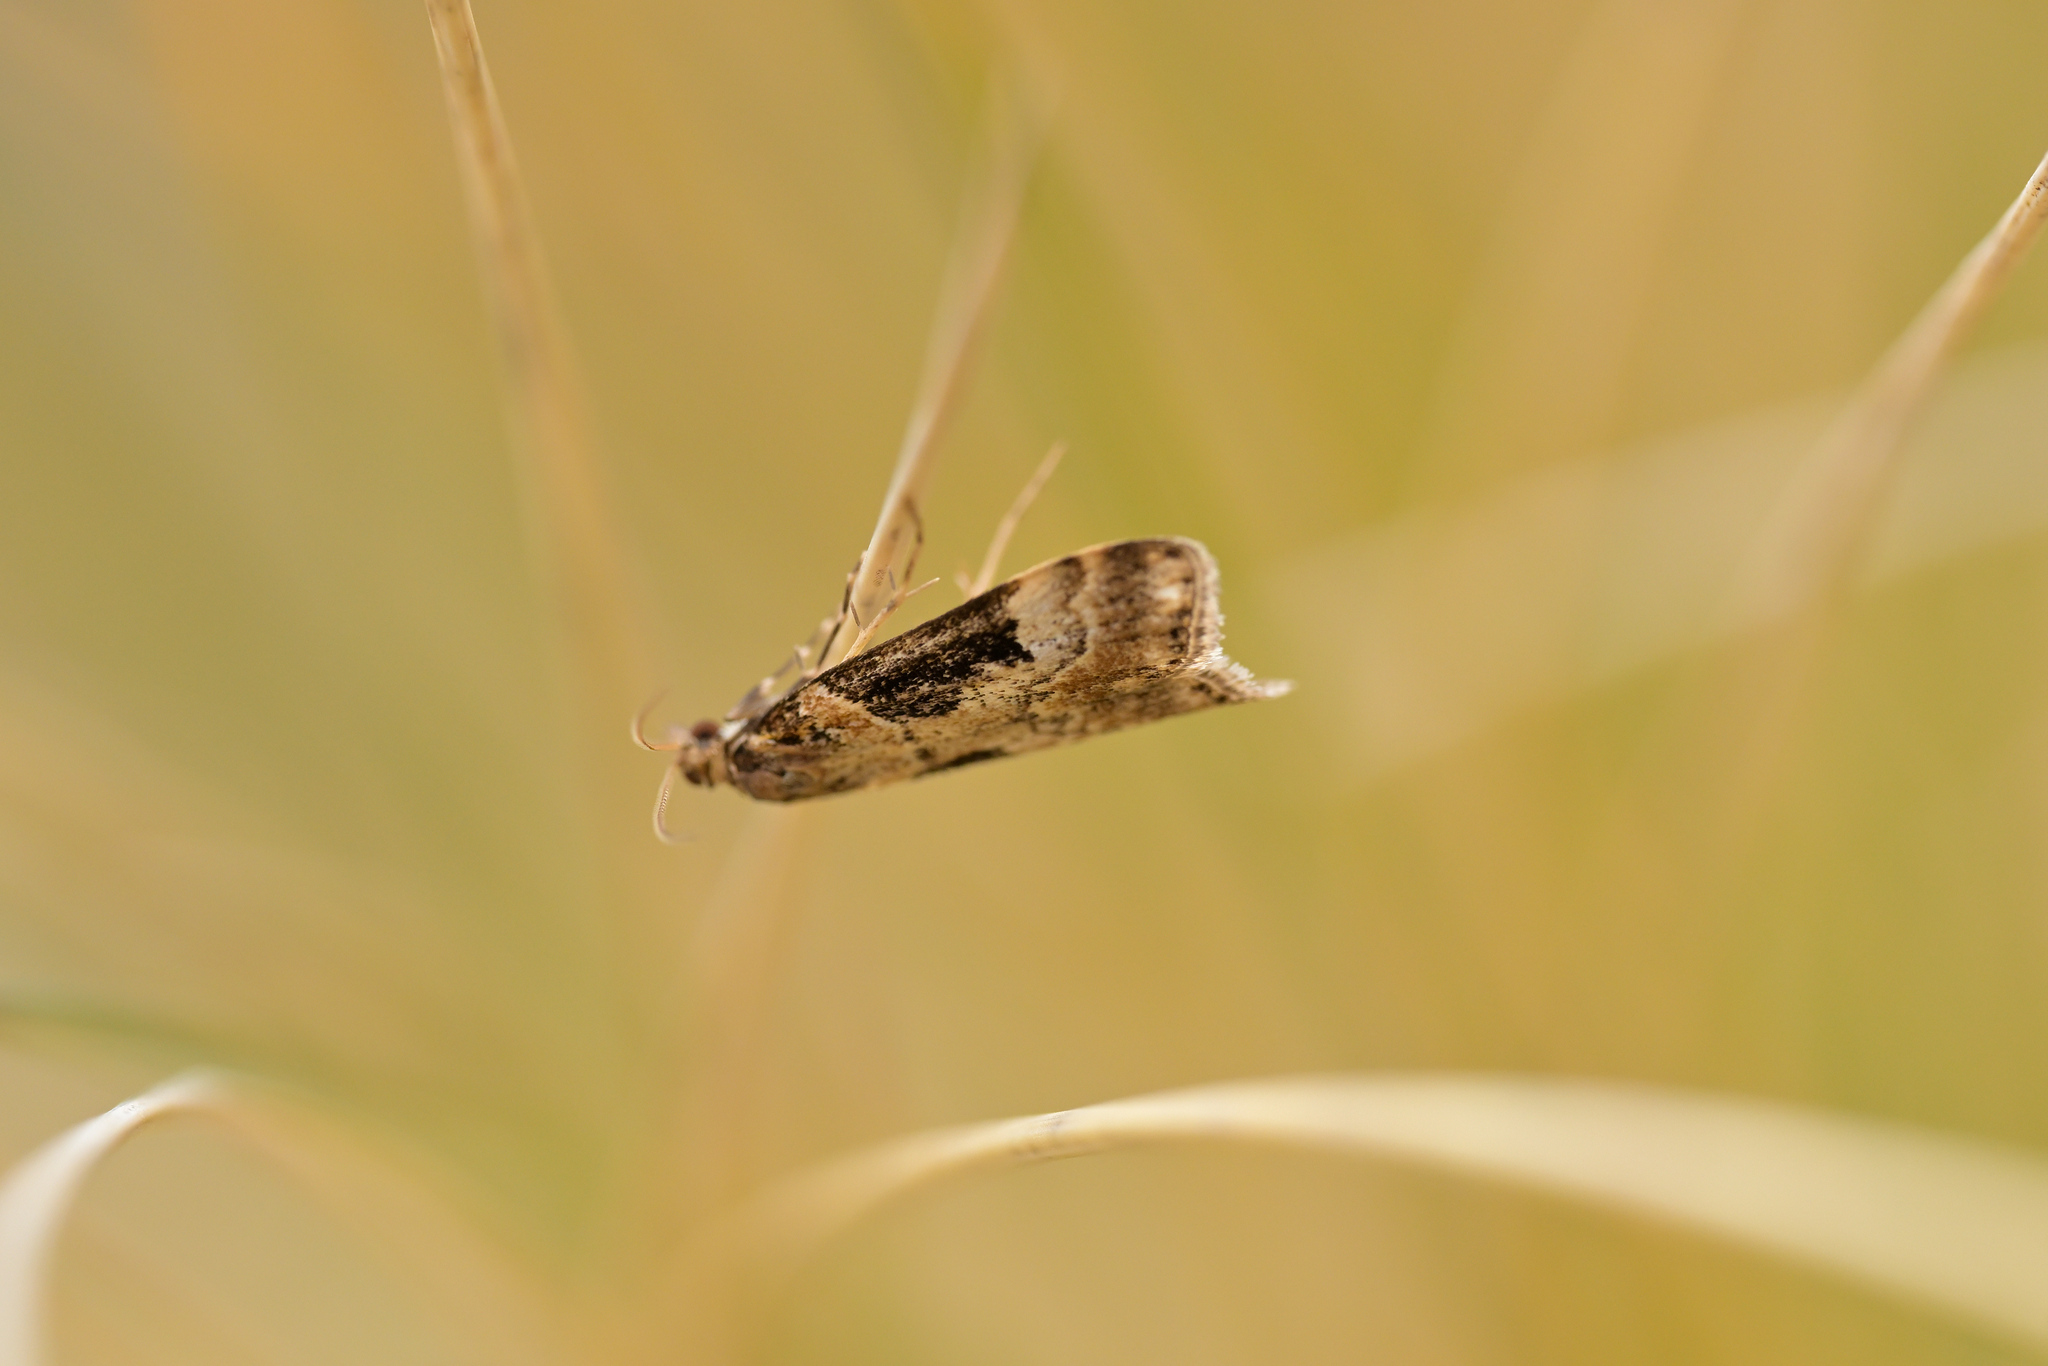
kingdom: Animalia
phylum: Arthropoda
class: Insecta
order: Lepidoptera
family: Crambidae
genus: Scoparia
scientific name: Scoparia parmifera
